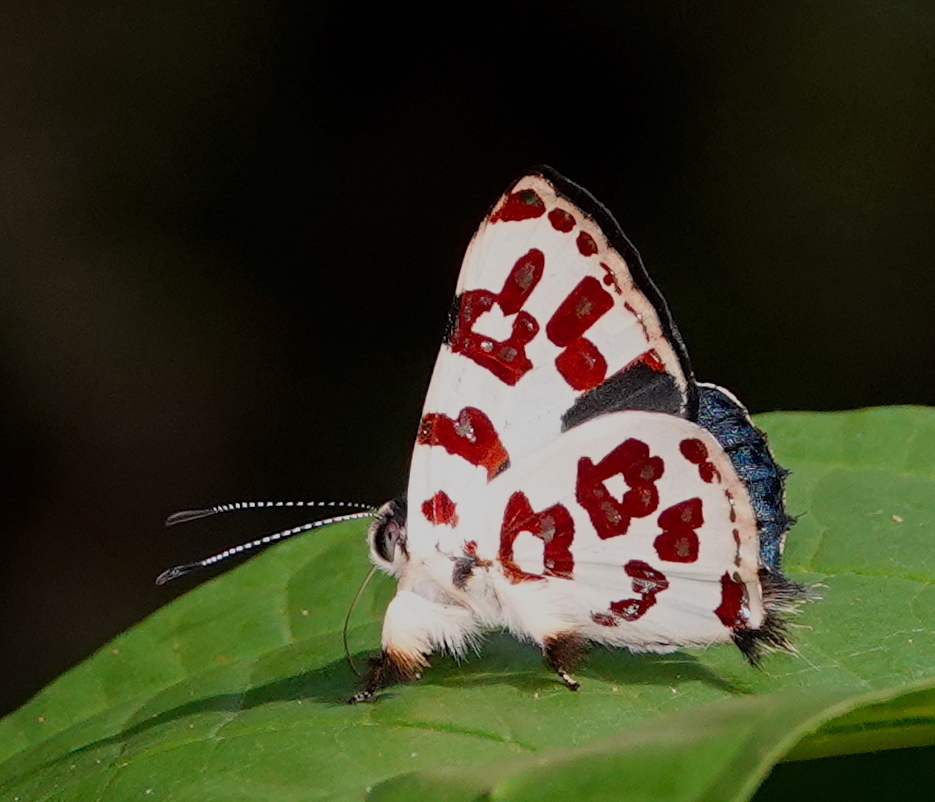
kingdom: Animalia
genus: Anteros
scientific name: Anteros bracteatus
